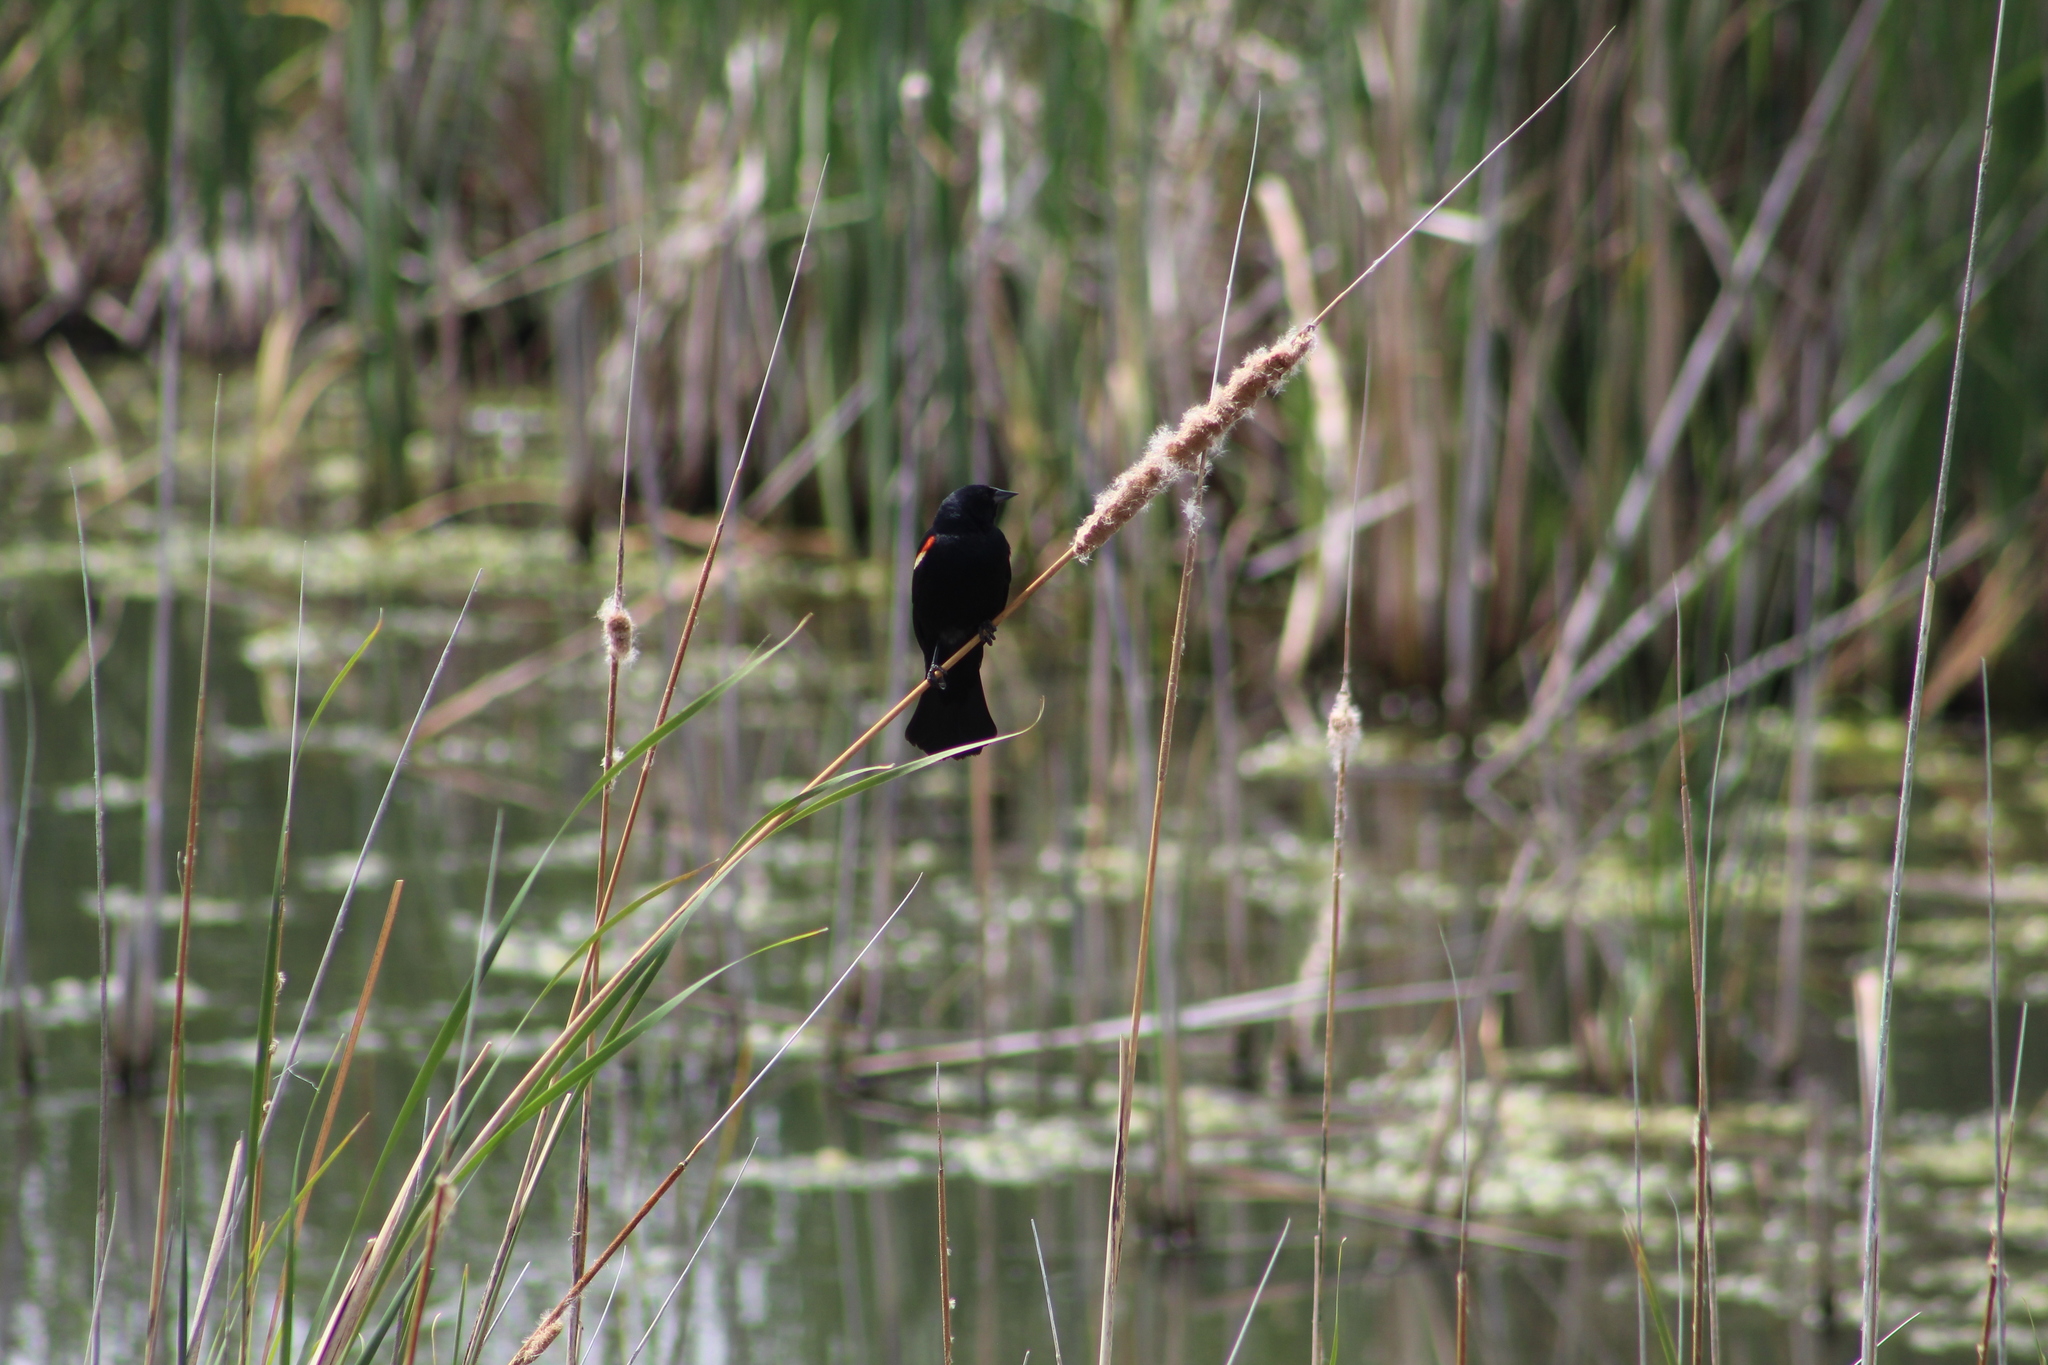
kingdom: Animalia
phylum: Chordata
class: Aves
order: Passeriformes
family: Icteridae
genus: Agelaius
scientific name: Agelaius phoeniceus
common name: Red-winged blackbird
